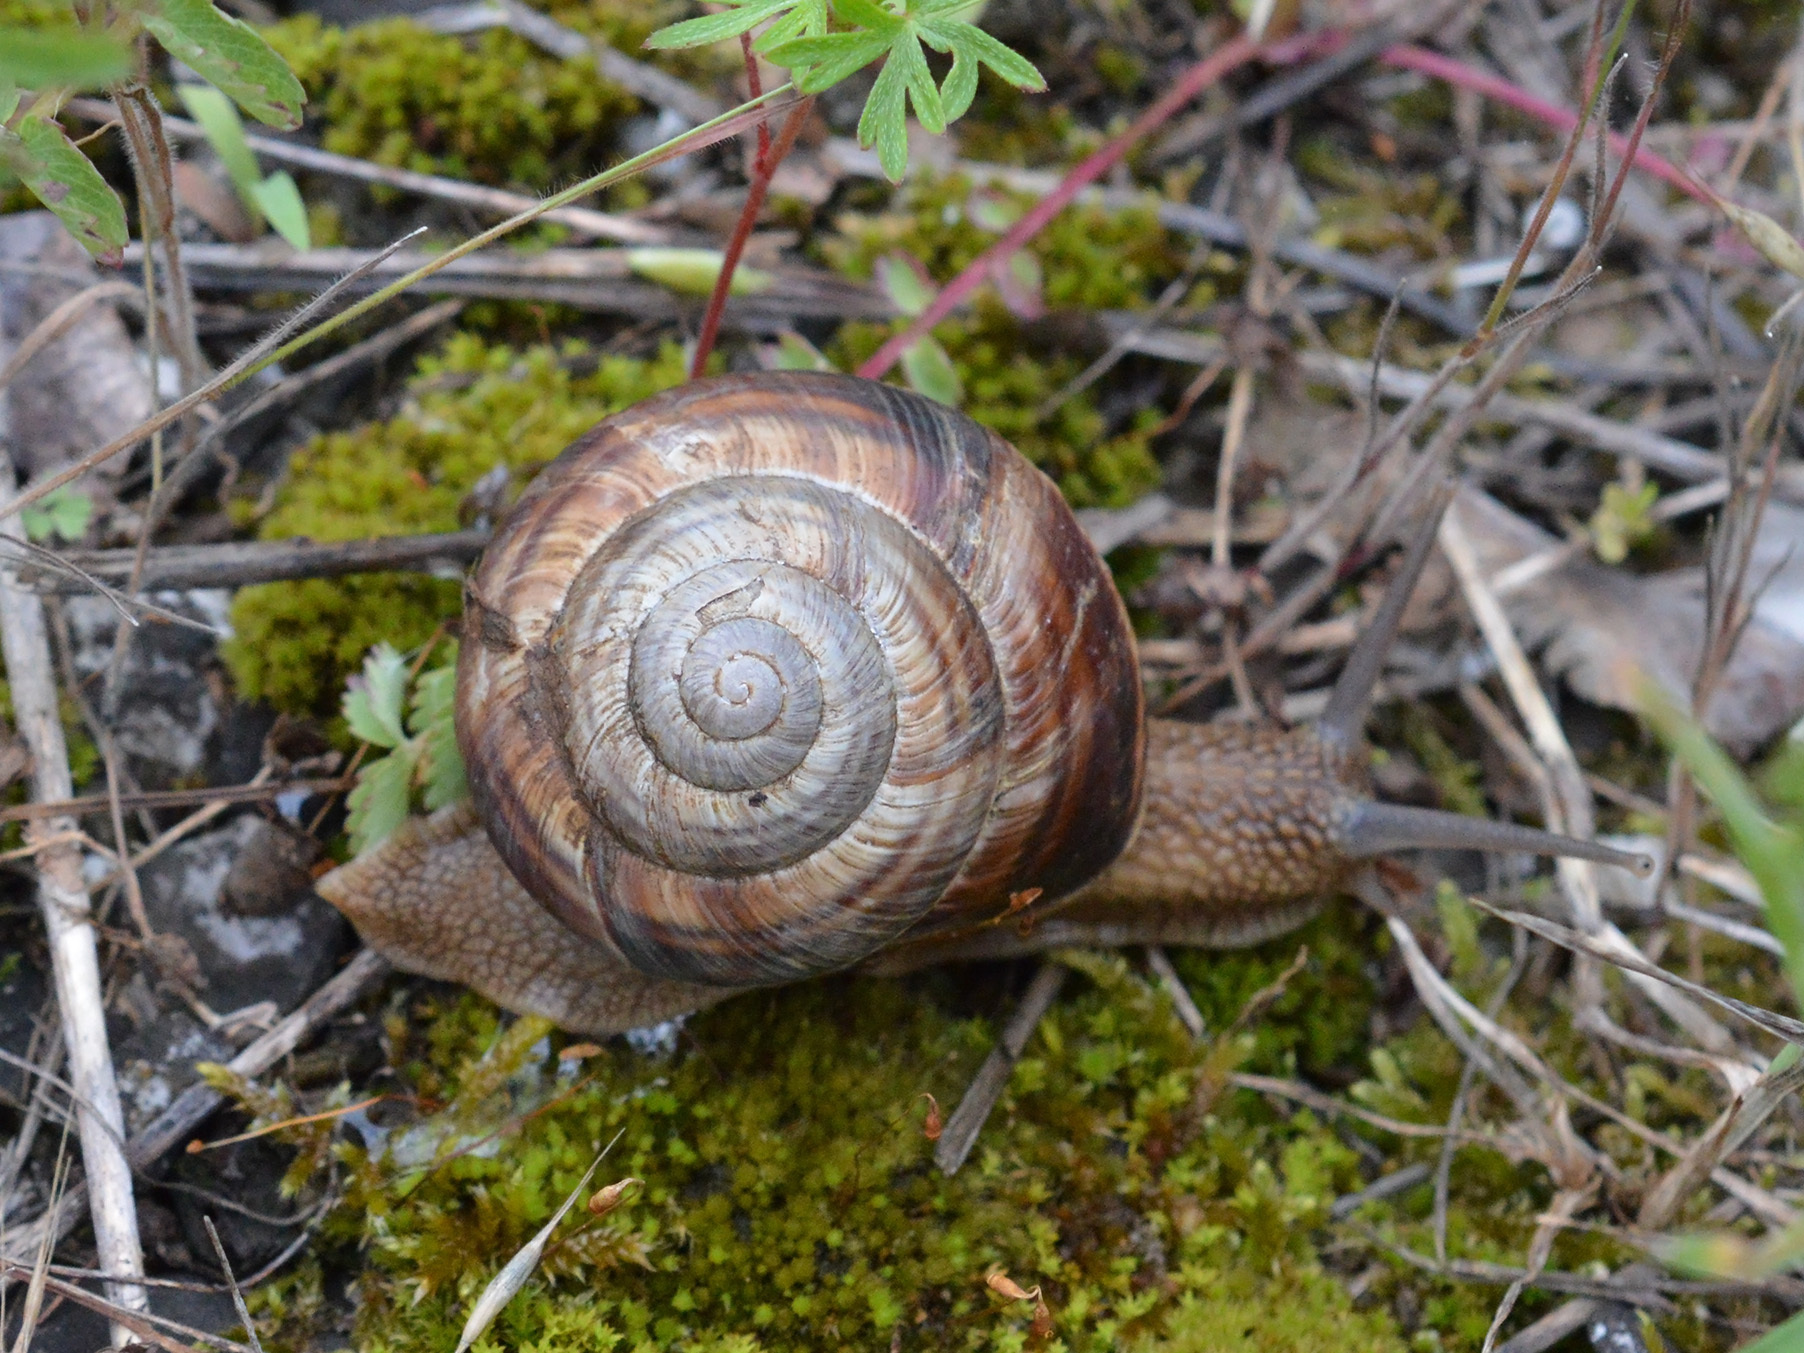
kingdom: Animalia
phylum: Mollusca
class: Gastropoda
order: Stylommatophora
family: Helicidae
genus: Helix
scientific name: Helix lucorum
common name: Turkish snail
